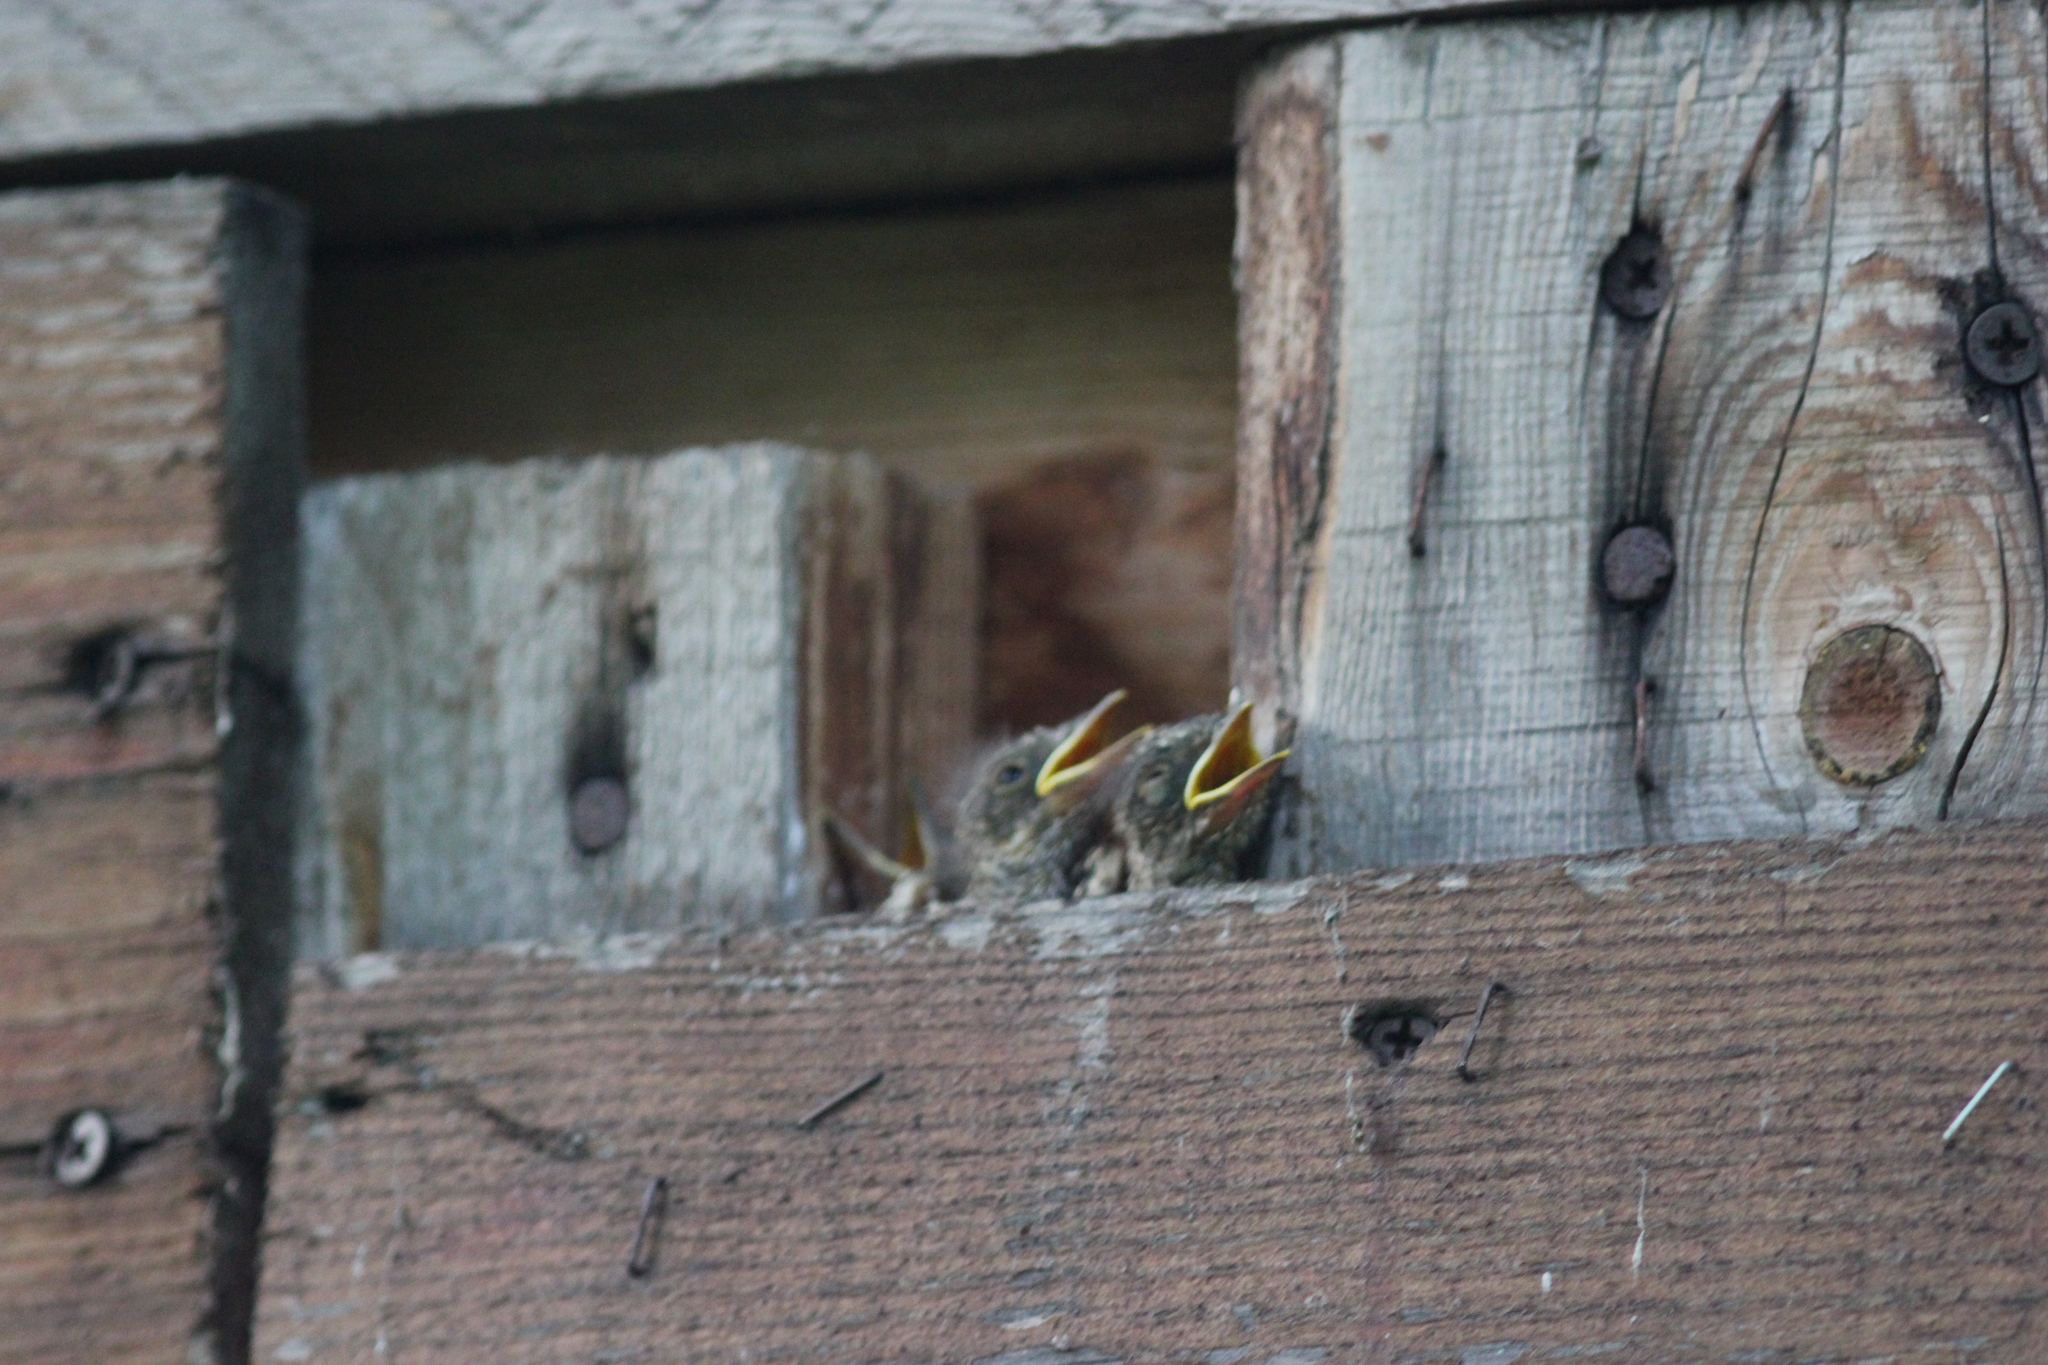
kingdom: Animalia
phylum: Chordata
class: Aves
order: Passeriformes
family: Muscicapidae
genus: Muscicapa
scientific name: Muscicapa striata
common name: Spotted flycatcher
